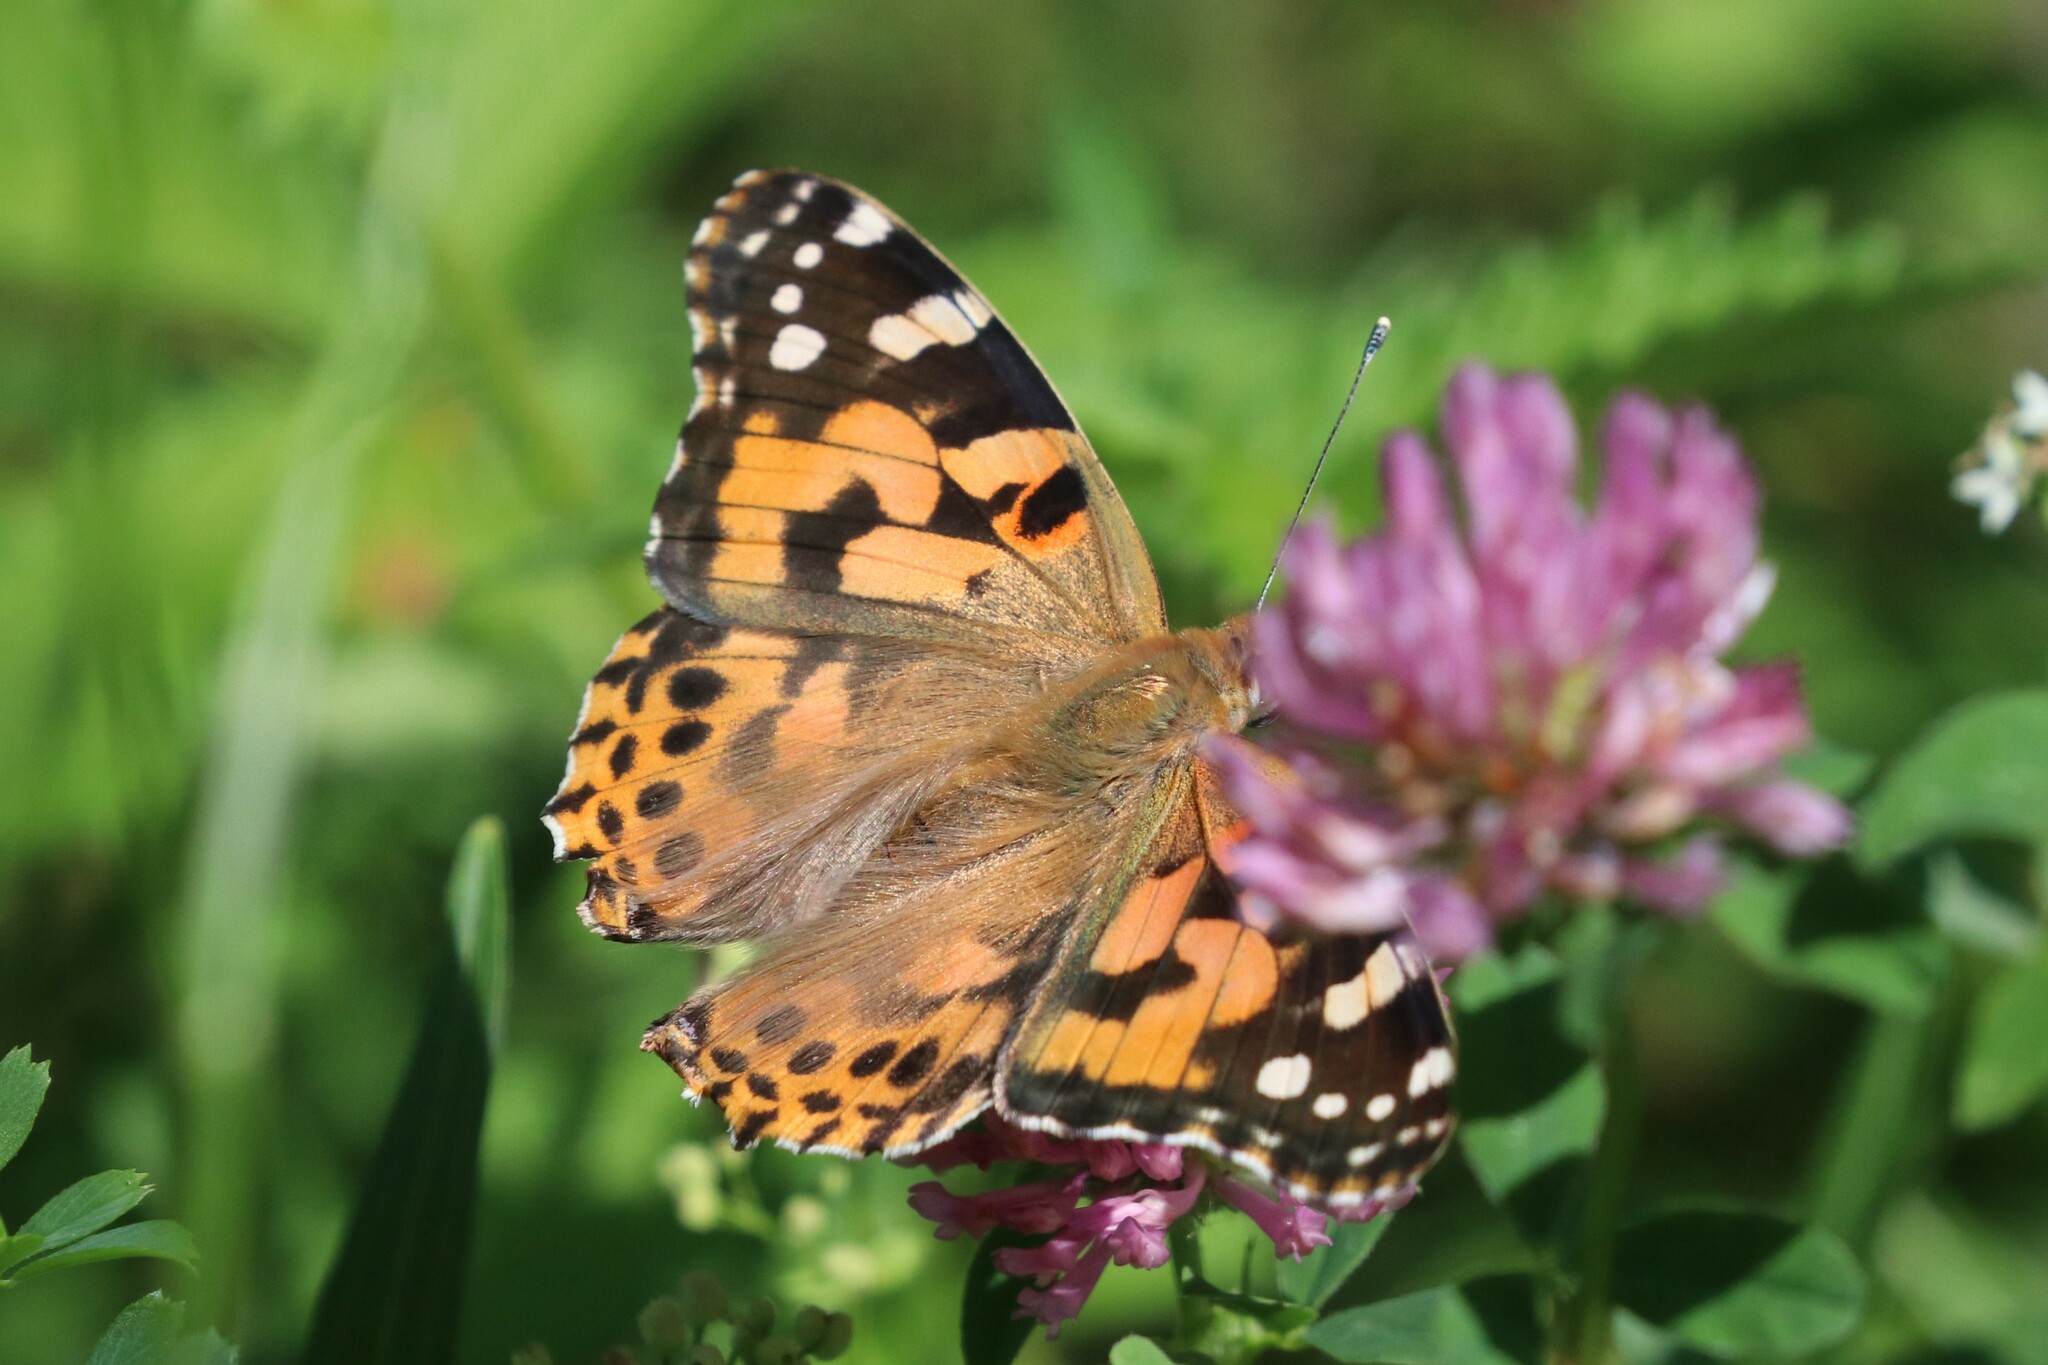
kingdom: Animalia
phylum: Arthropoda
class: Insecta
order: Lepidoptera
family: Nymphalidae
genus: Vanessa
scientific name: Vanessa cardui
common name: Painted lady
